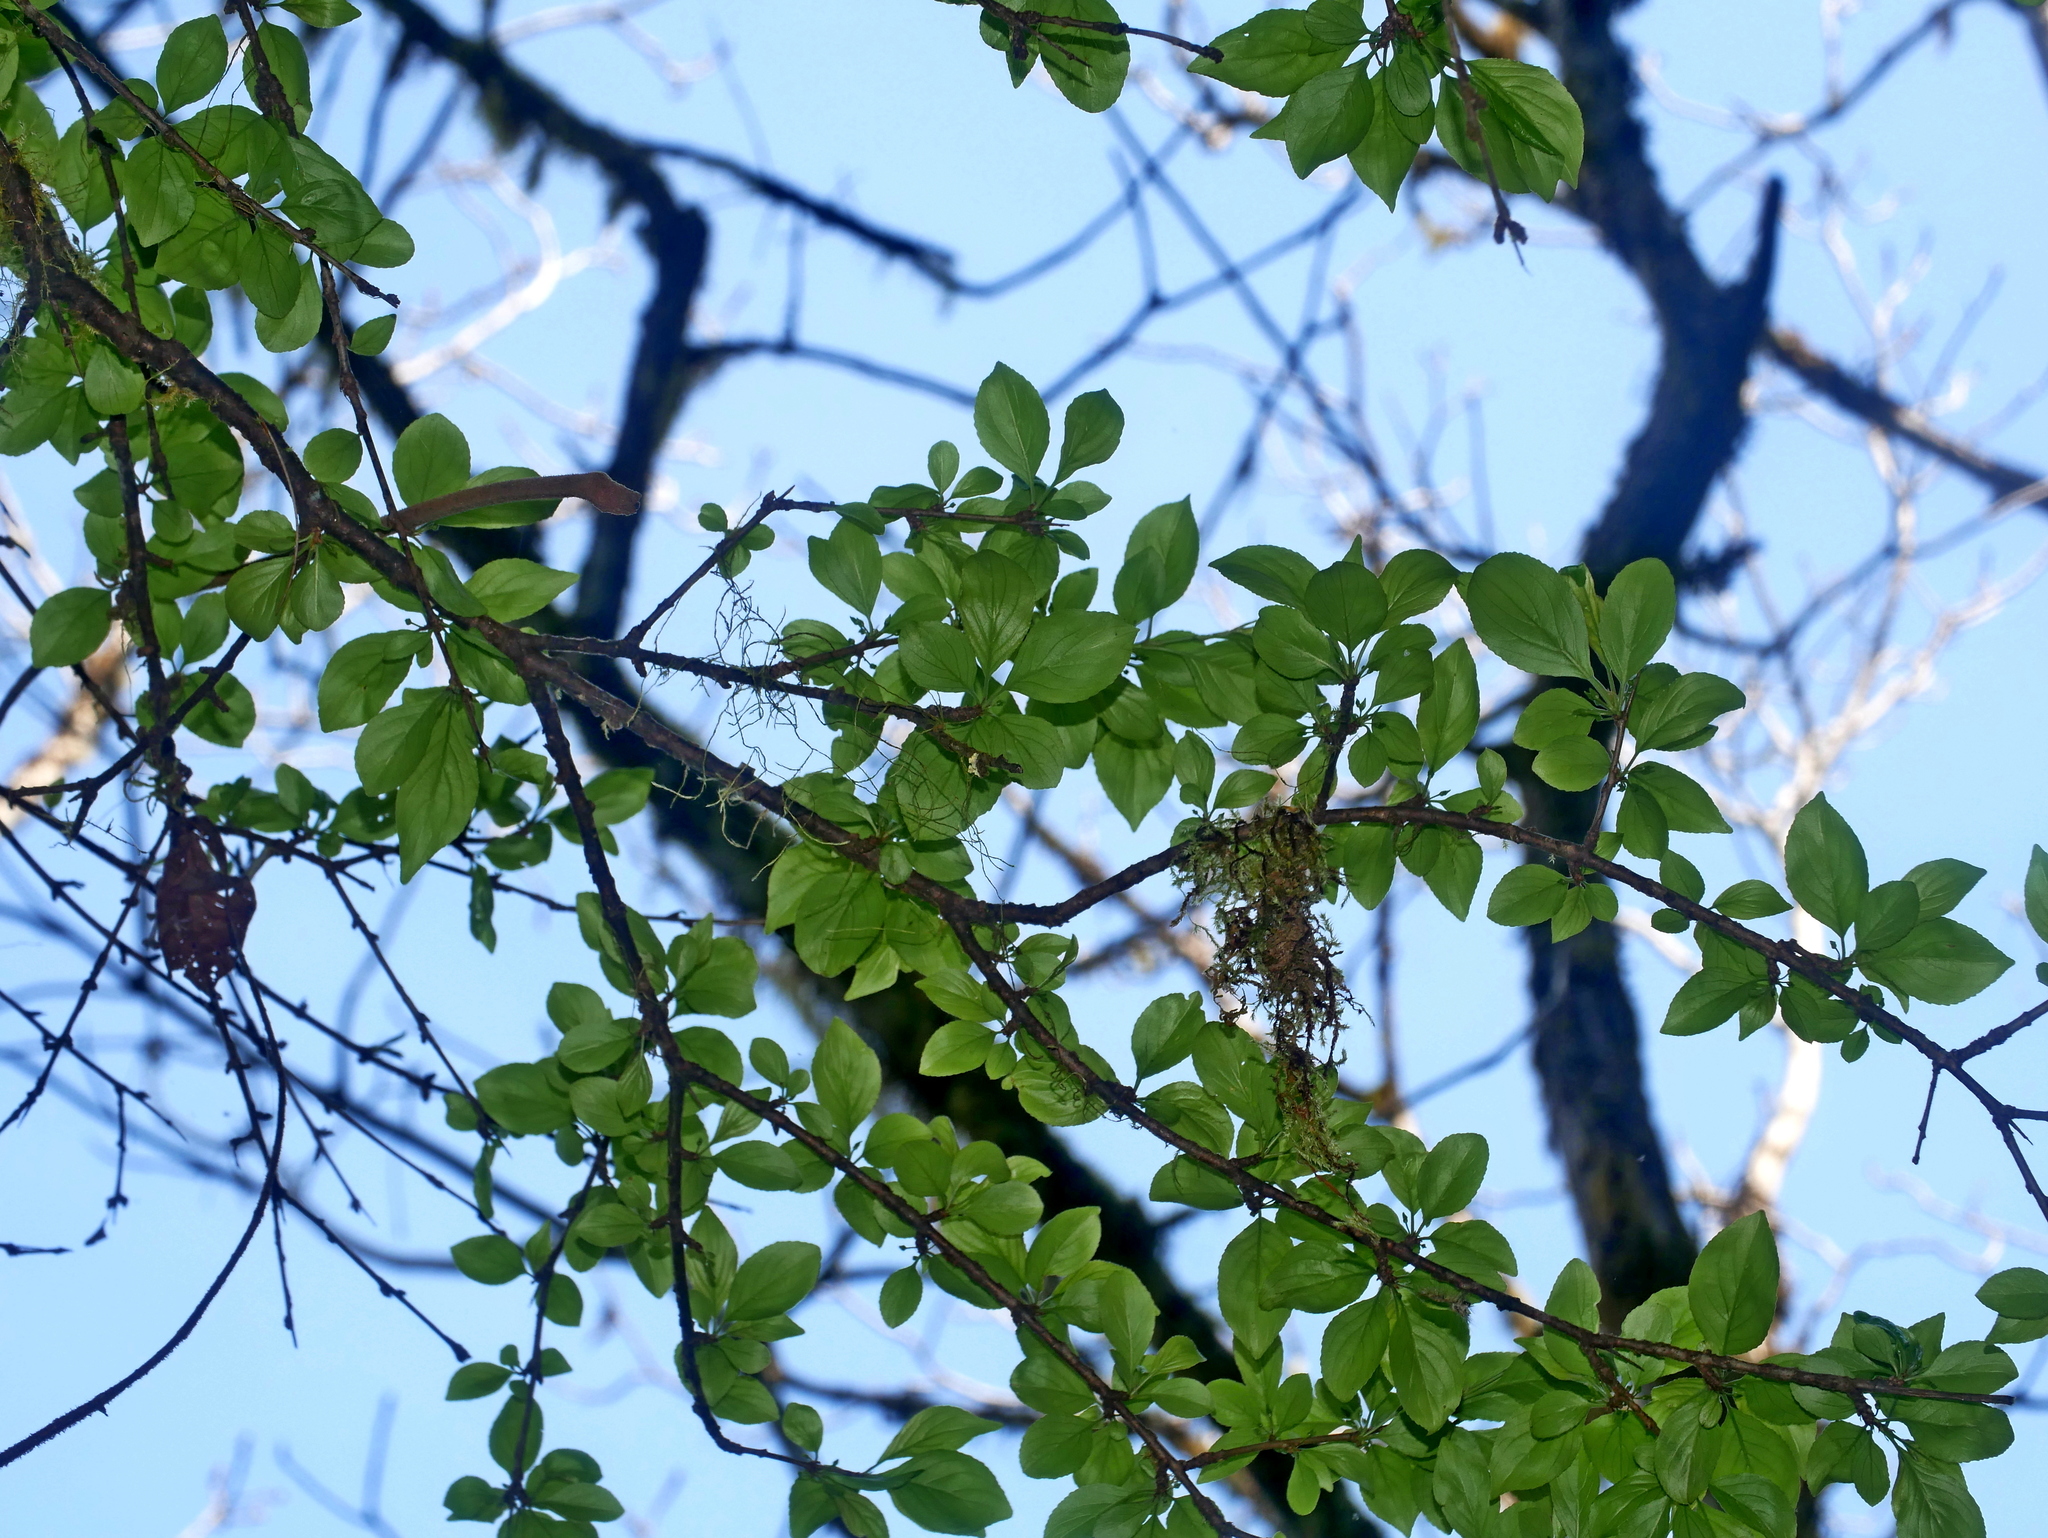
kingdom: Plantae
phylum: Tracheophyta
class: Magnoliopsida
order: Rosales
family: Rhamnaceae
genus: Rhamnus
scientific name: Rhamnus pilushanensis
